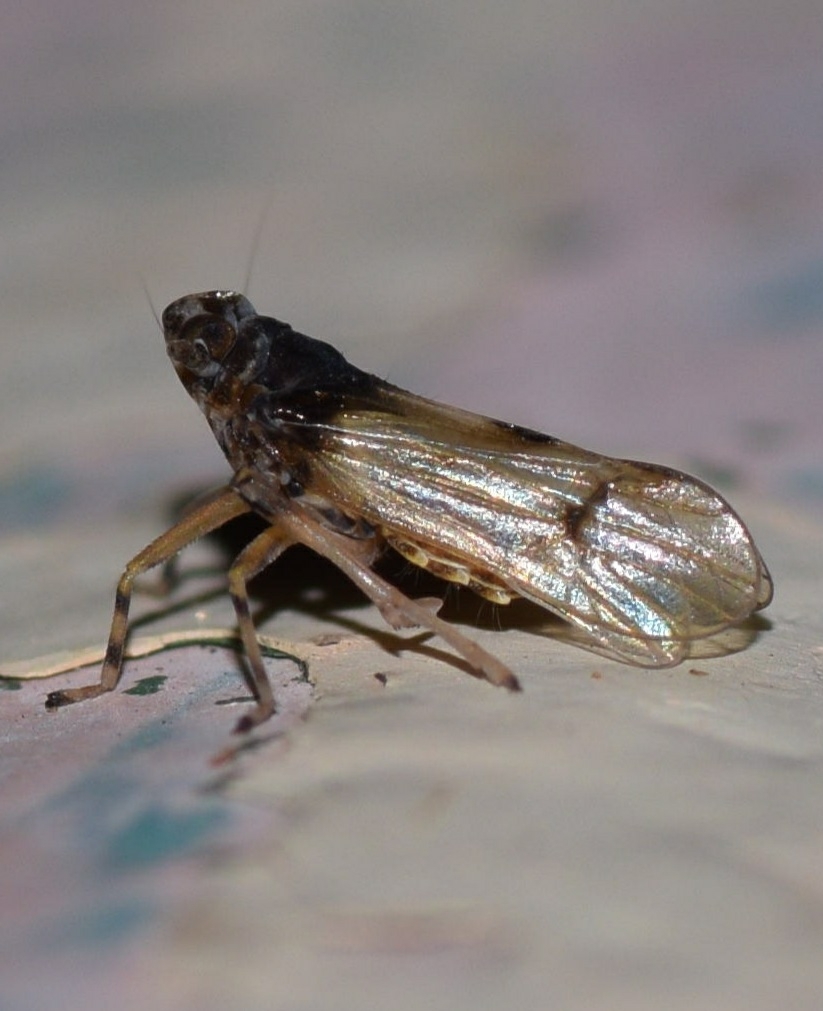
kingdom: Animalia
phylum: Arthropoda
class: Insecta
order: Hemiptera
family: Delphacidae
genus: Megamelus
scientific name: Megamelus scutellaris
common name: South american planthopper
